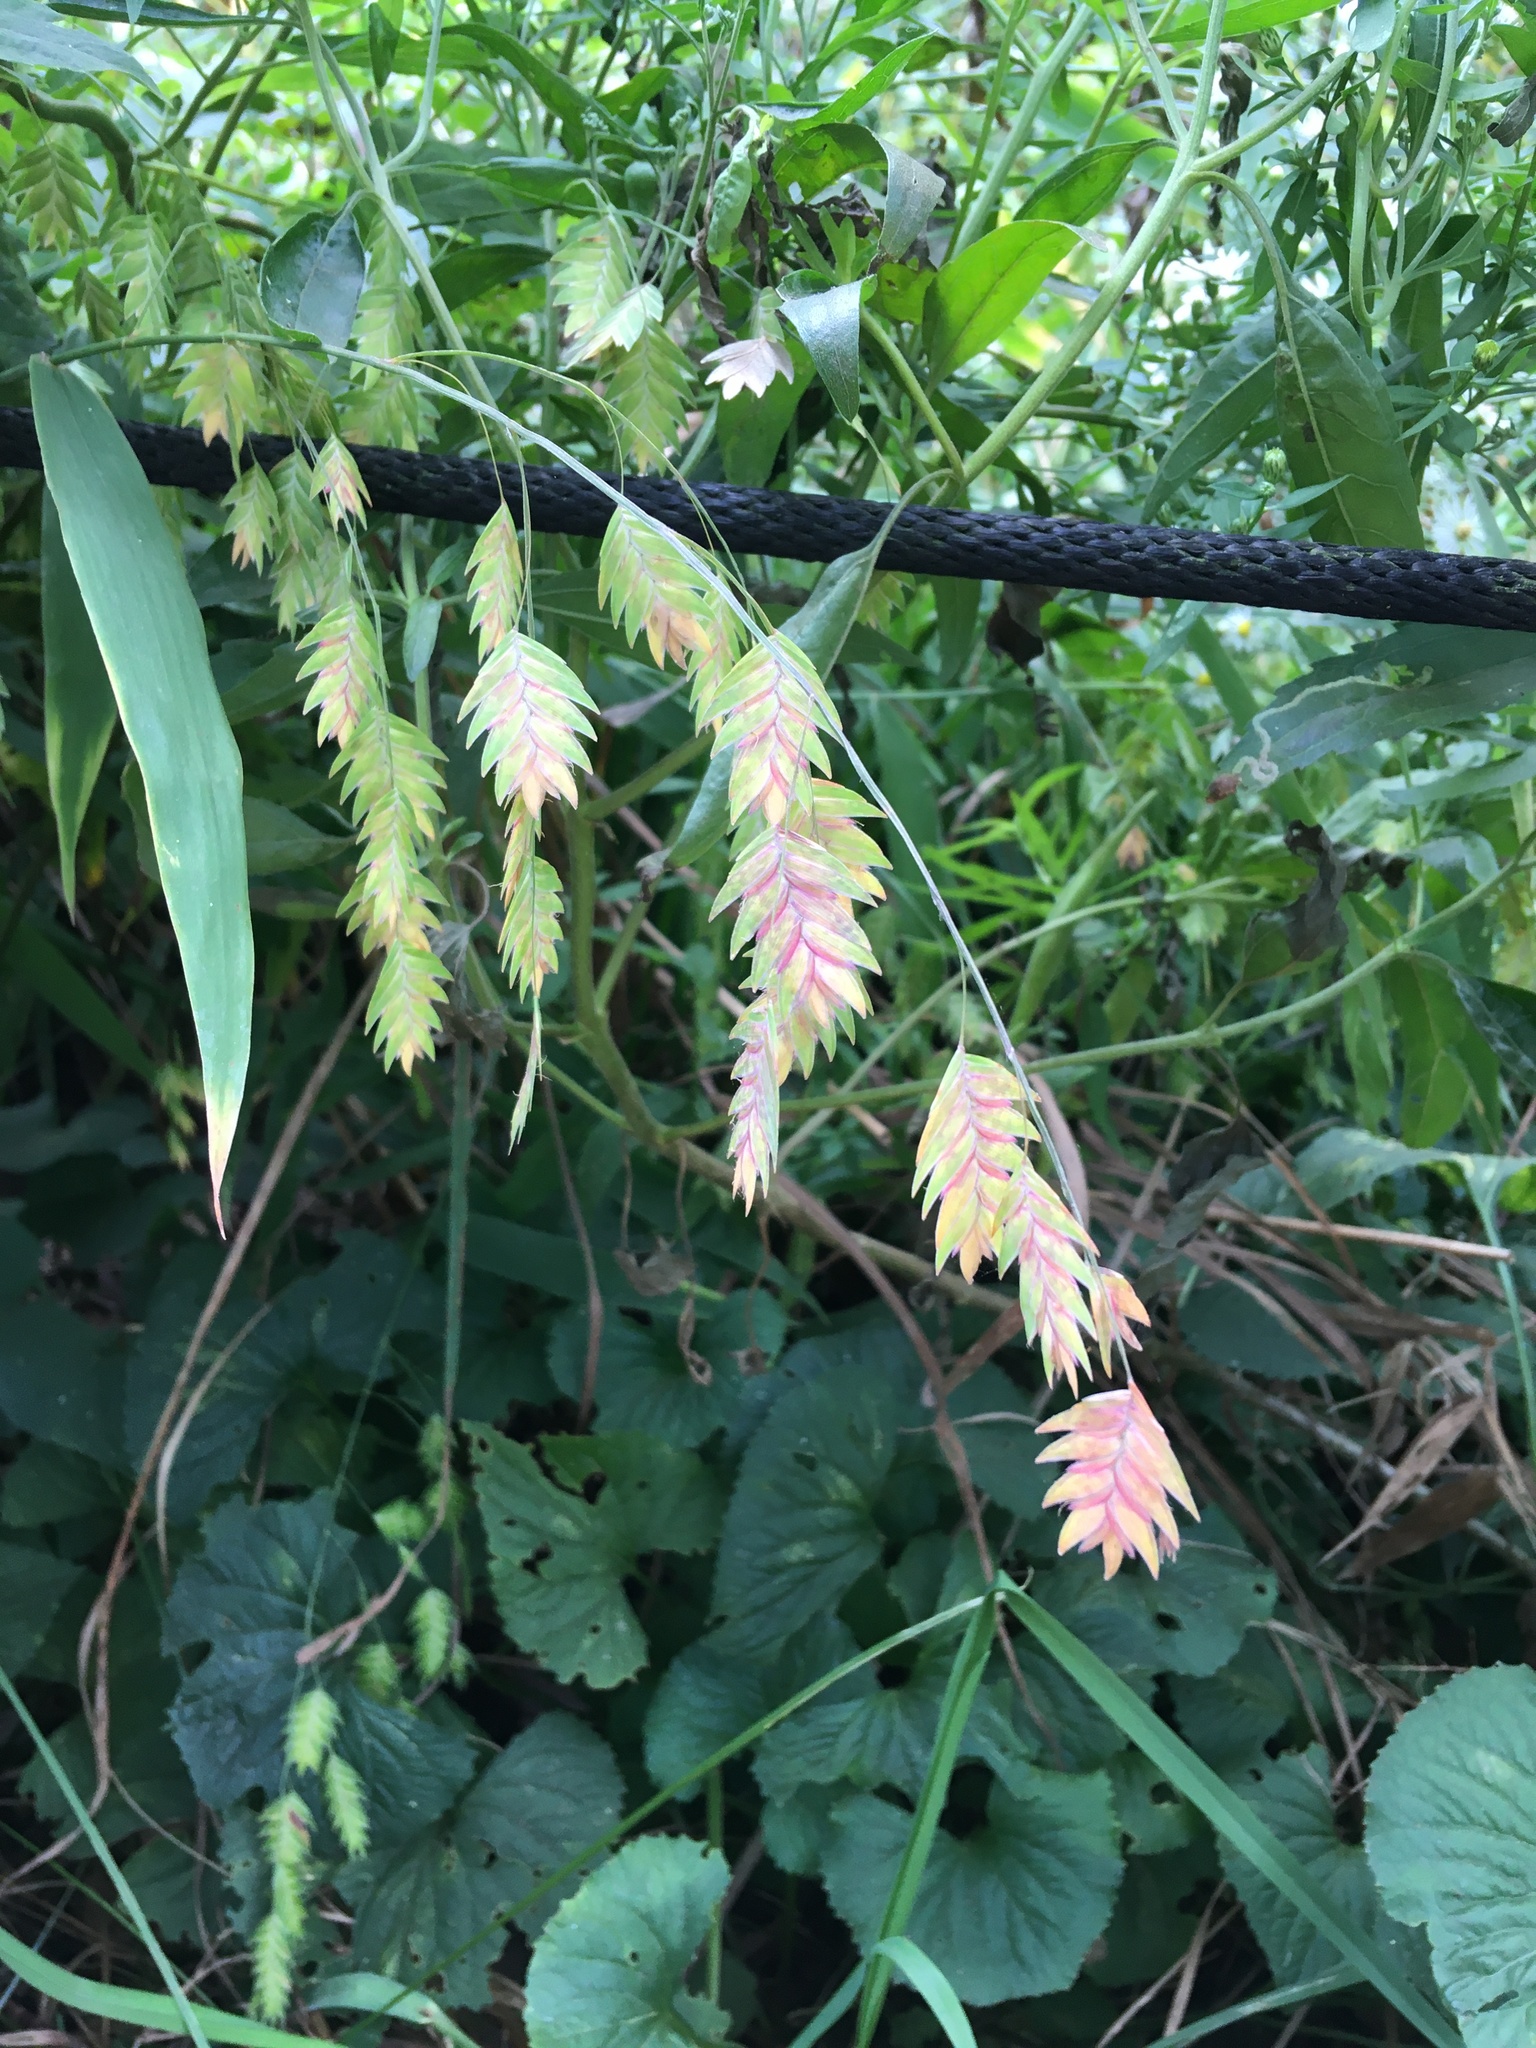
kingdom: Plantae
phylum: Tracheophyta
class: Liliopsida
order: Poales
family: Poaceae
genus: Chasmanthium
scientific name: Chasmanthium latifolium
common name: Broad-leaved chasmanthium
